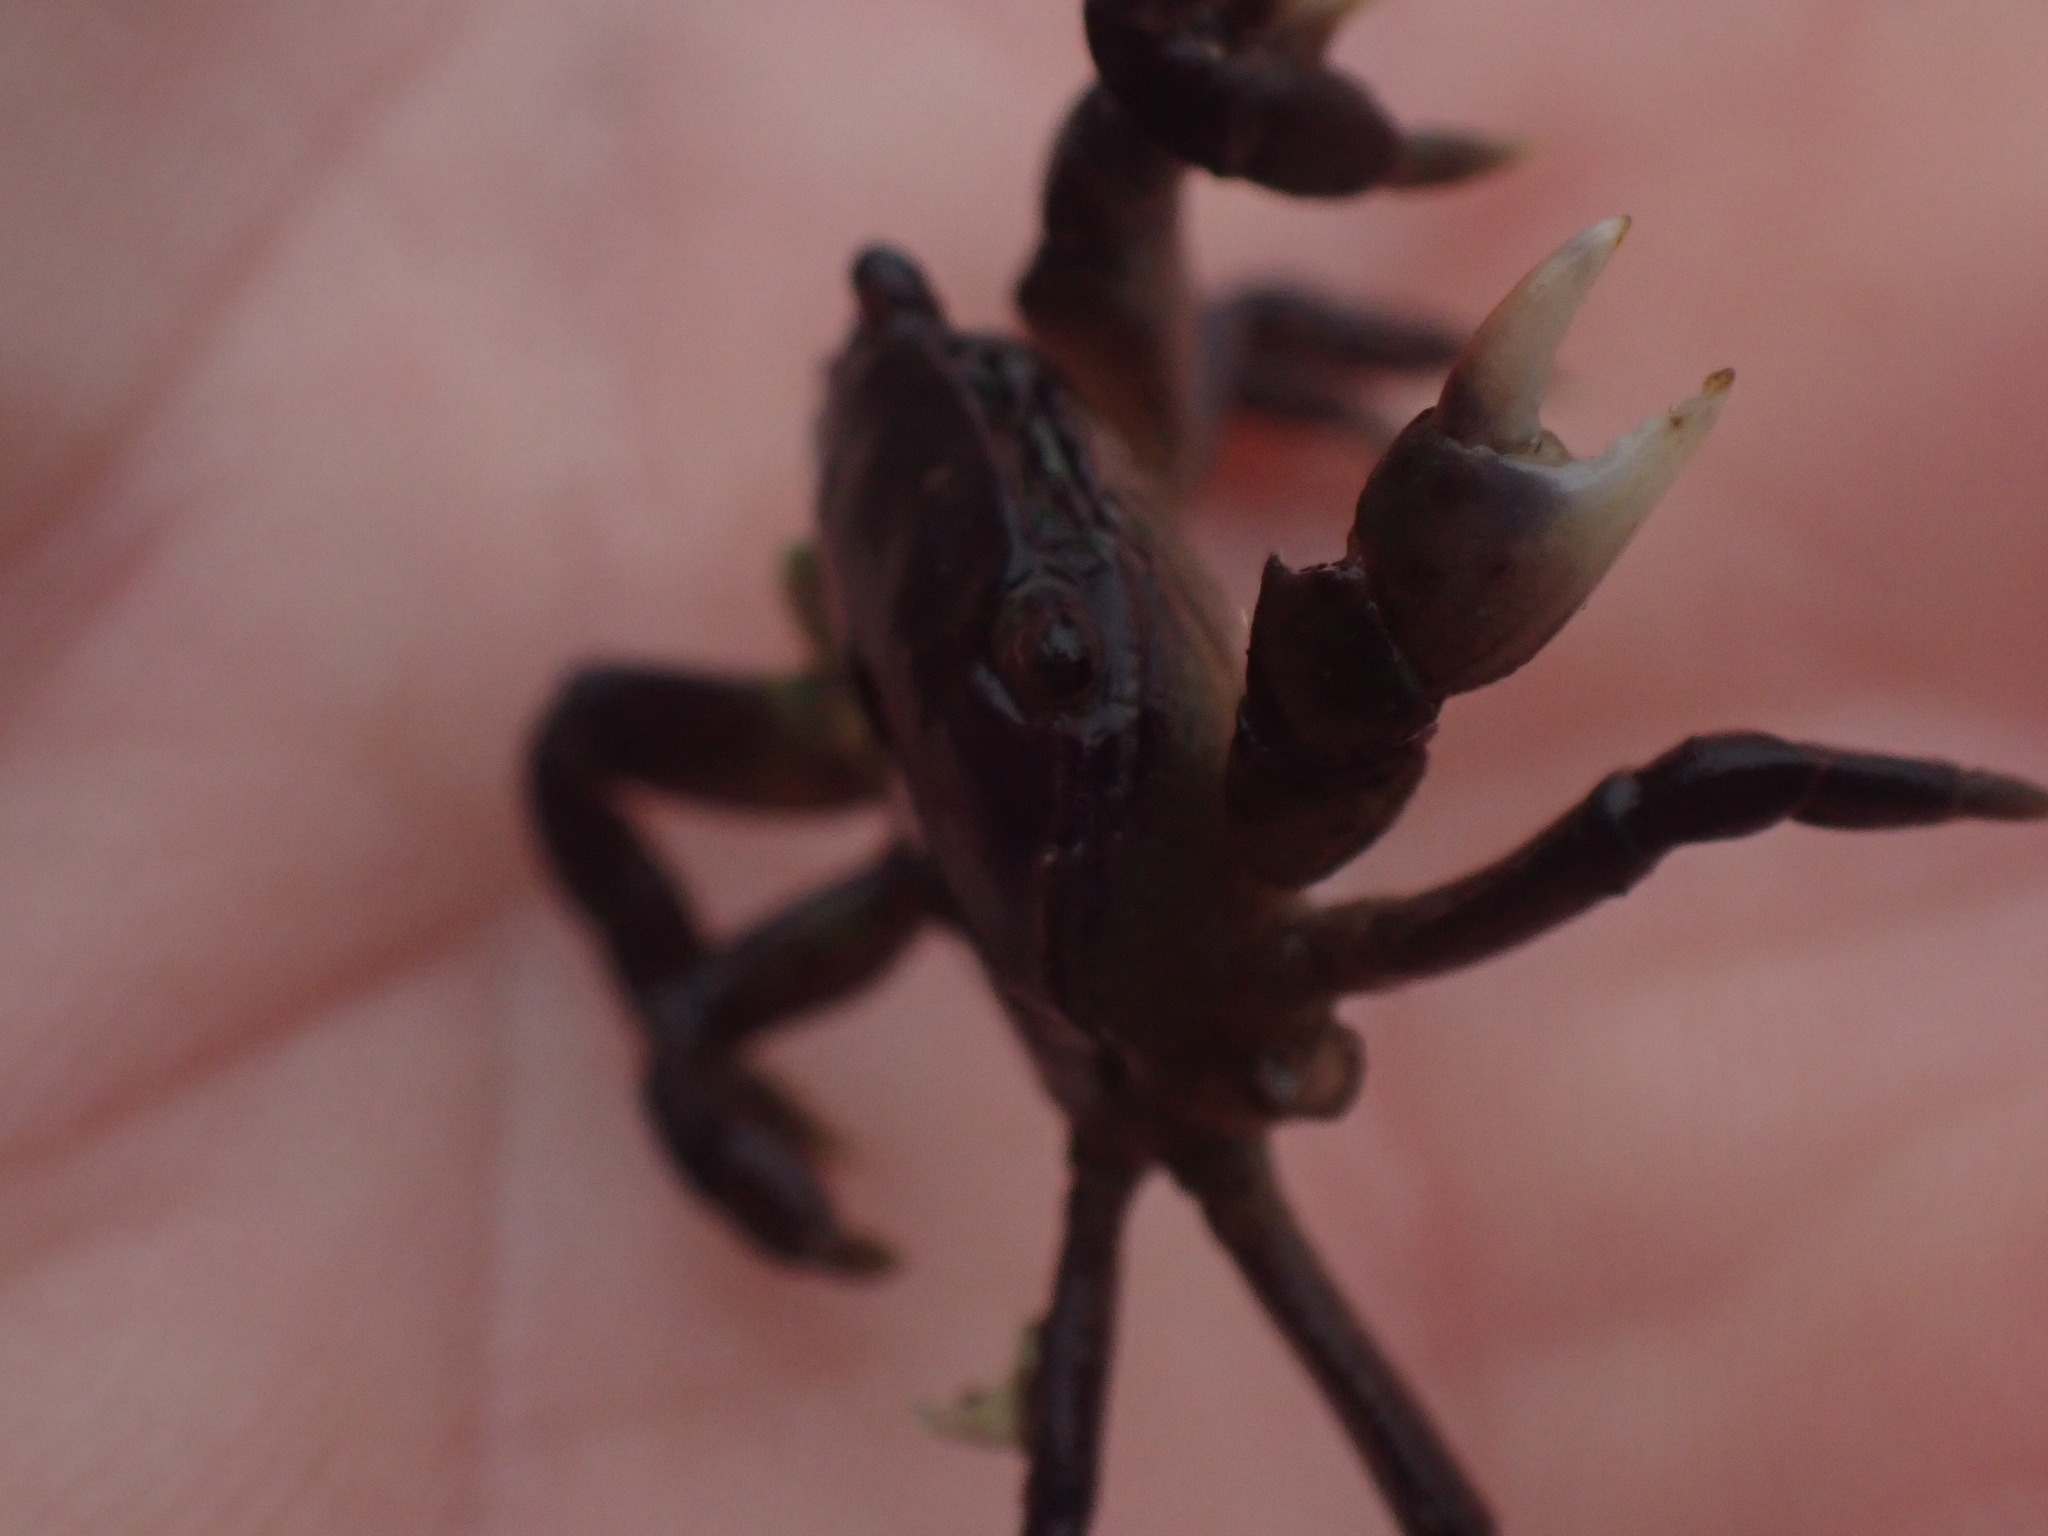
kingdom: Animalia
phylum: Arthropoda
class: Malacostraca
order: Decapoda
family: Varunidae
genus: Hemigrapsus
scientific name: Hemigrapsus nudus
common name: Purple shore crab
